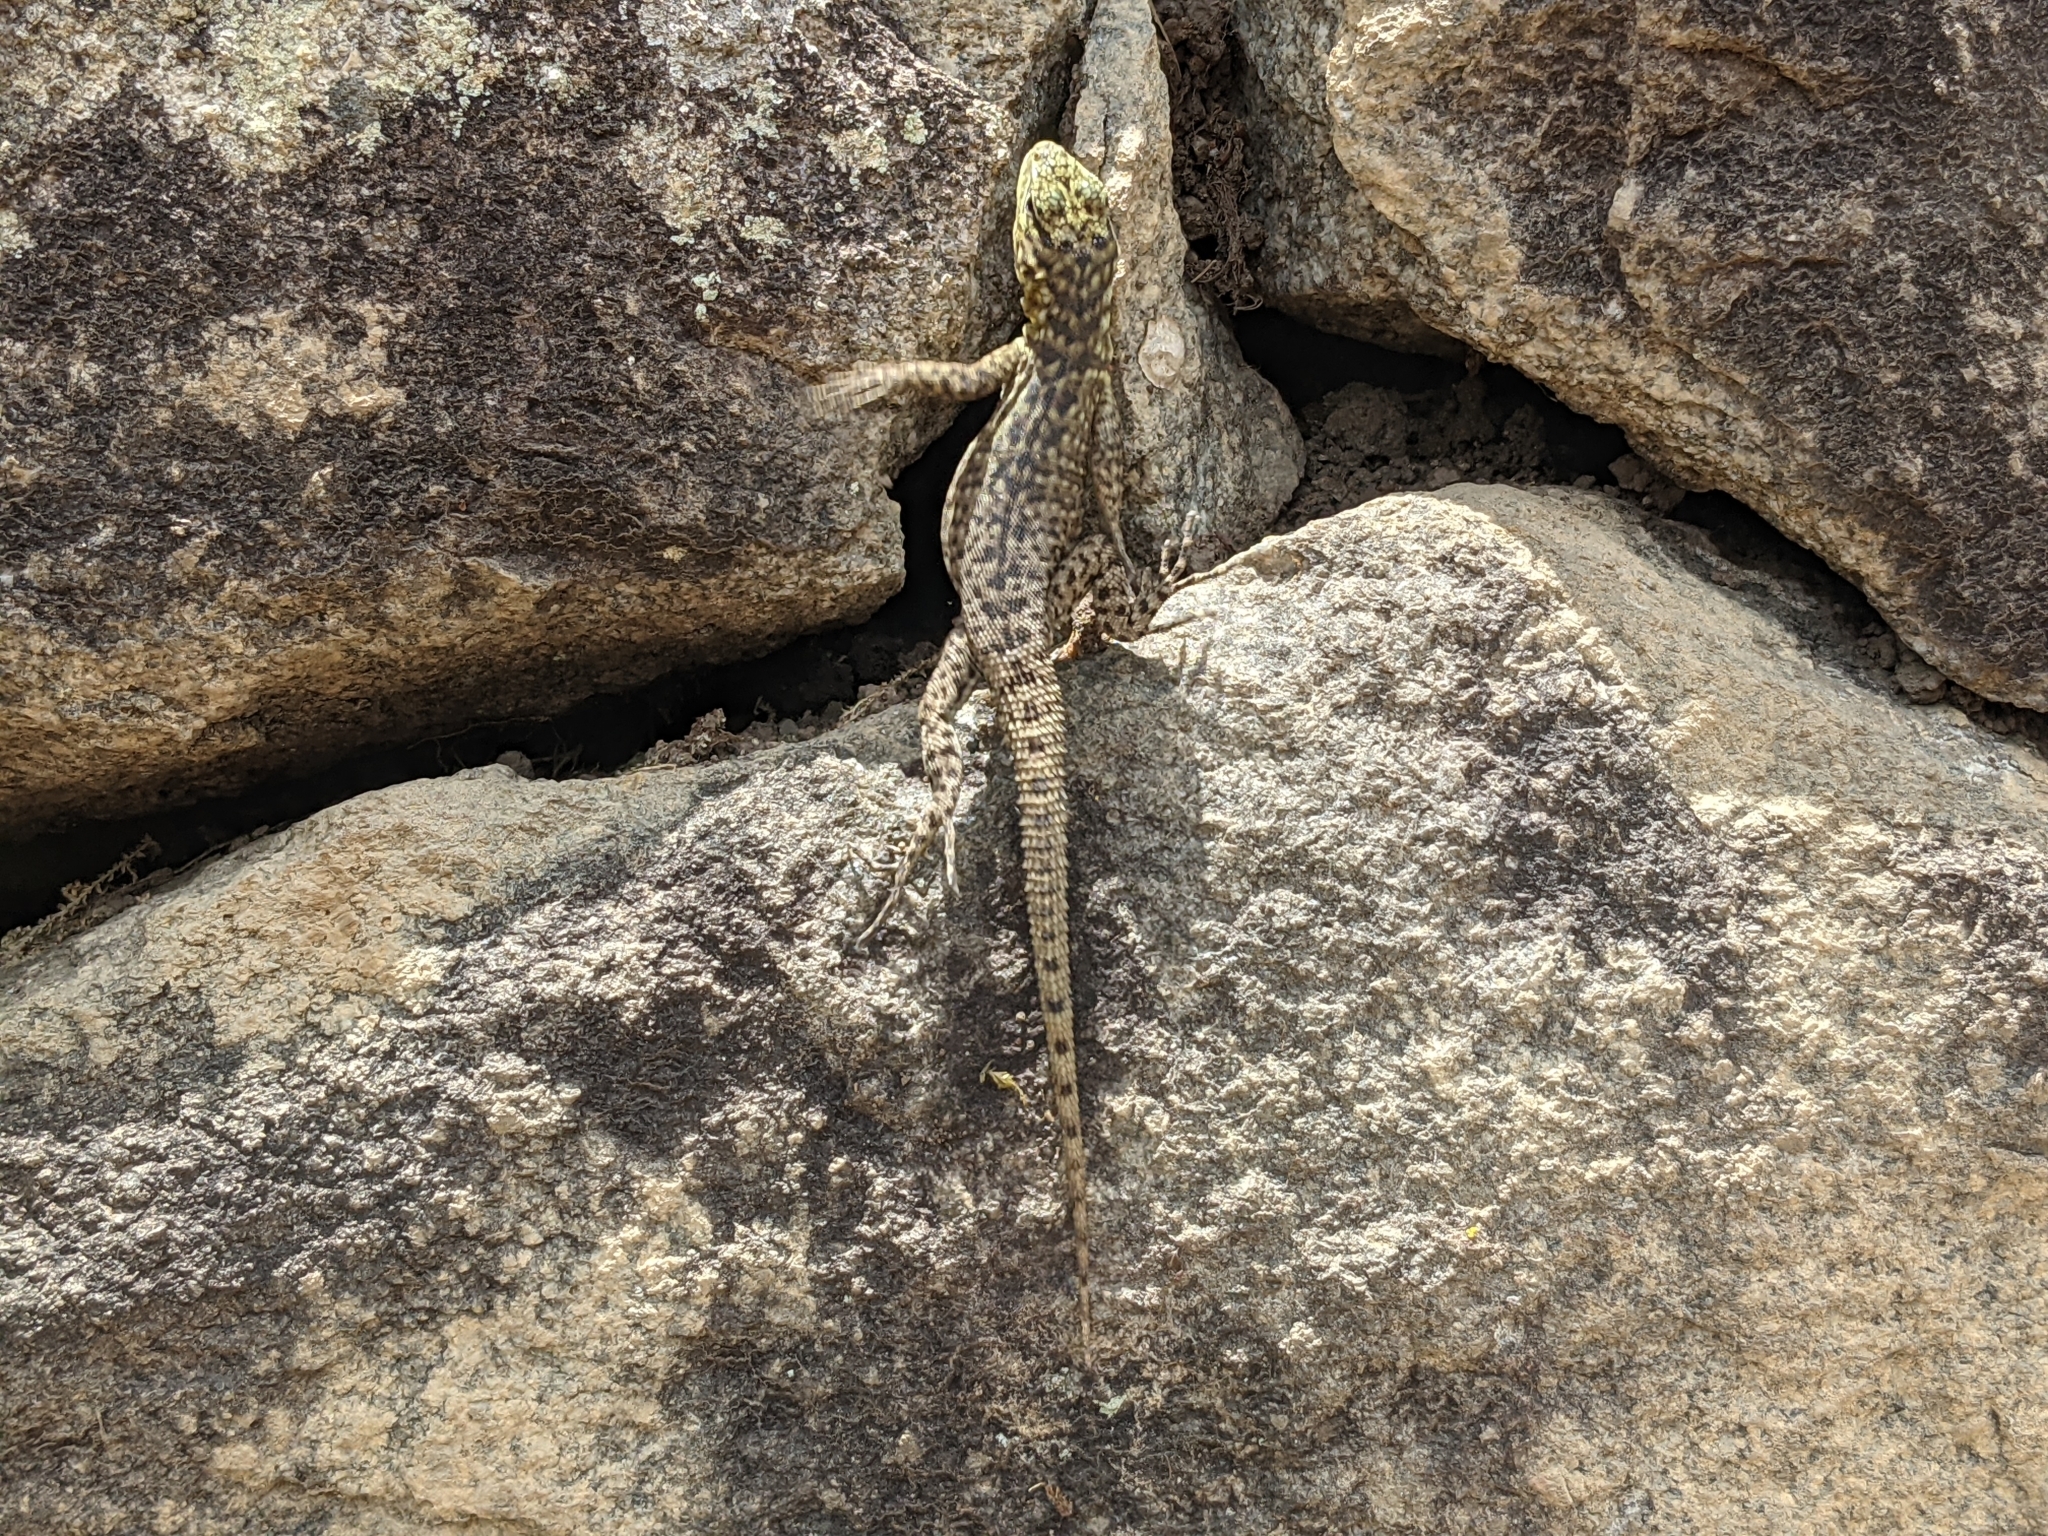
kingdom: Animalia
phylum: Chordata
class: Squamata
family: Tropiduridae
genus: Stenocercus
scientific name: Stenocercus crassicaudatus
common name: Spiny whorltail iguana
